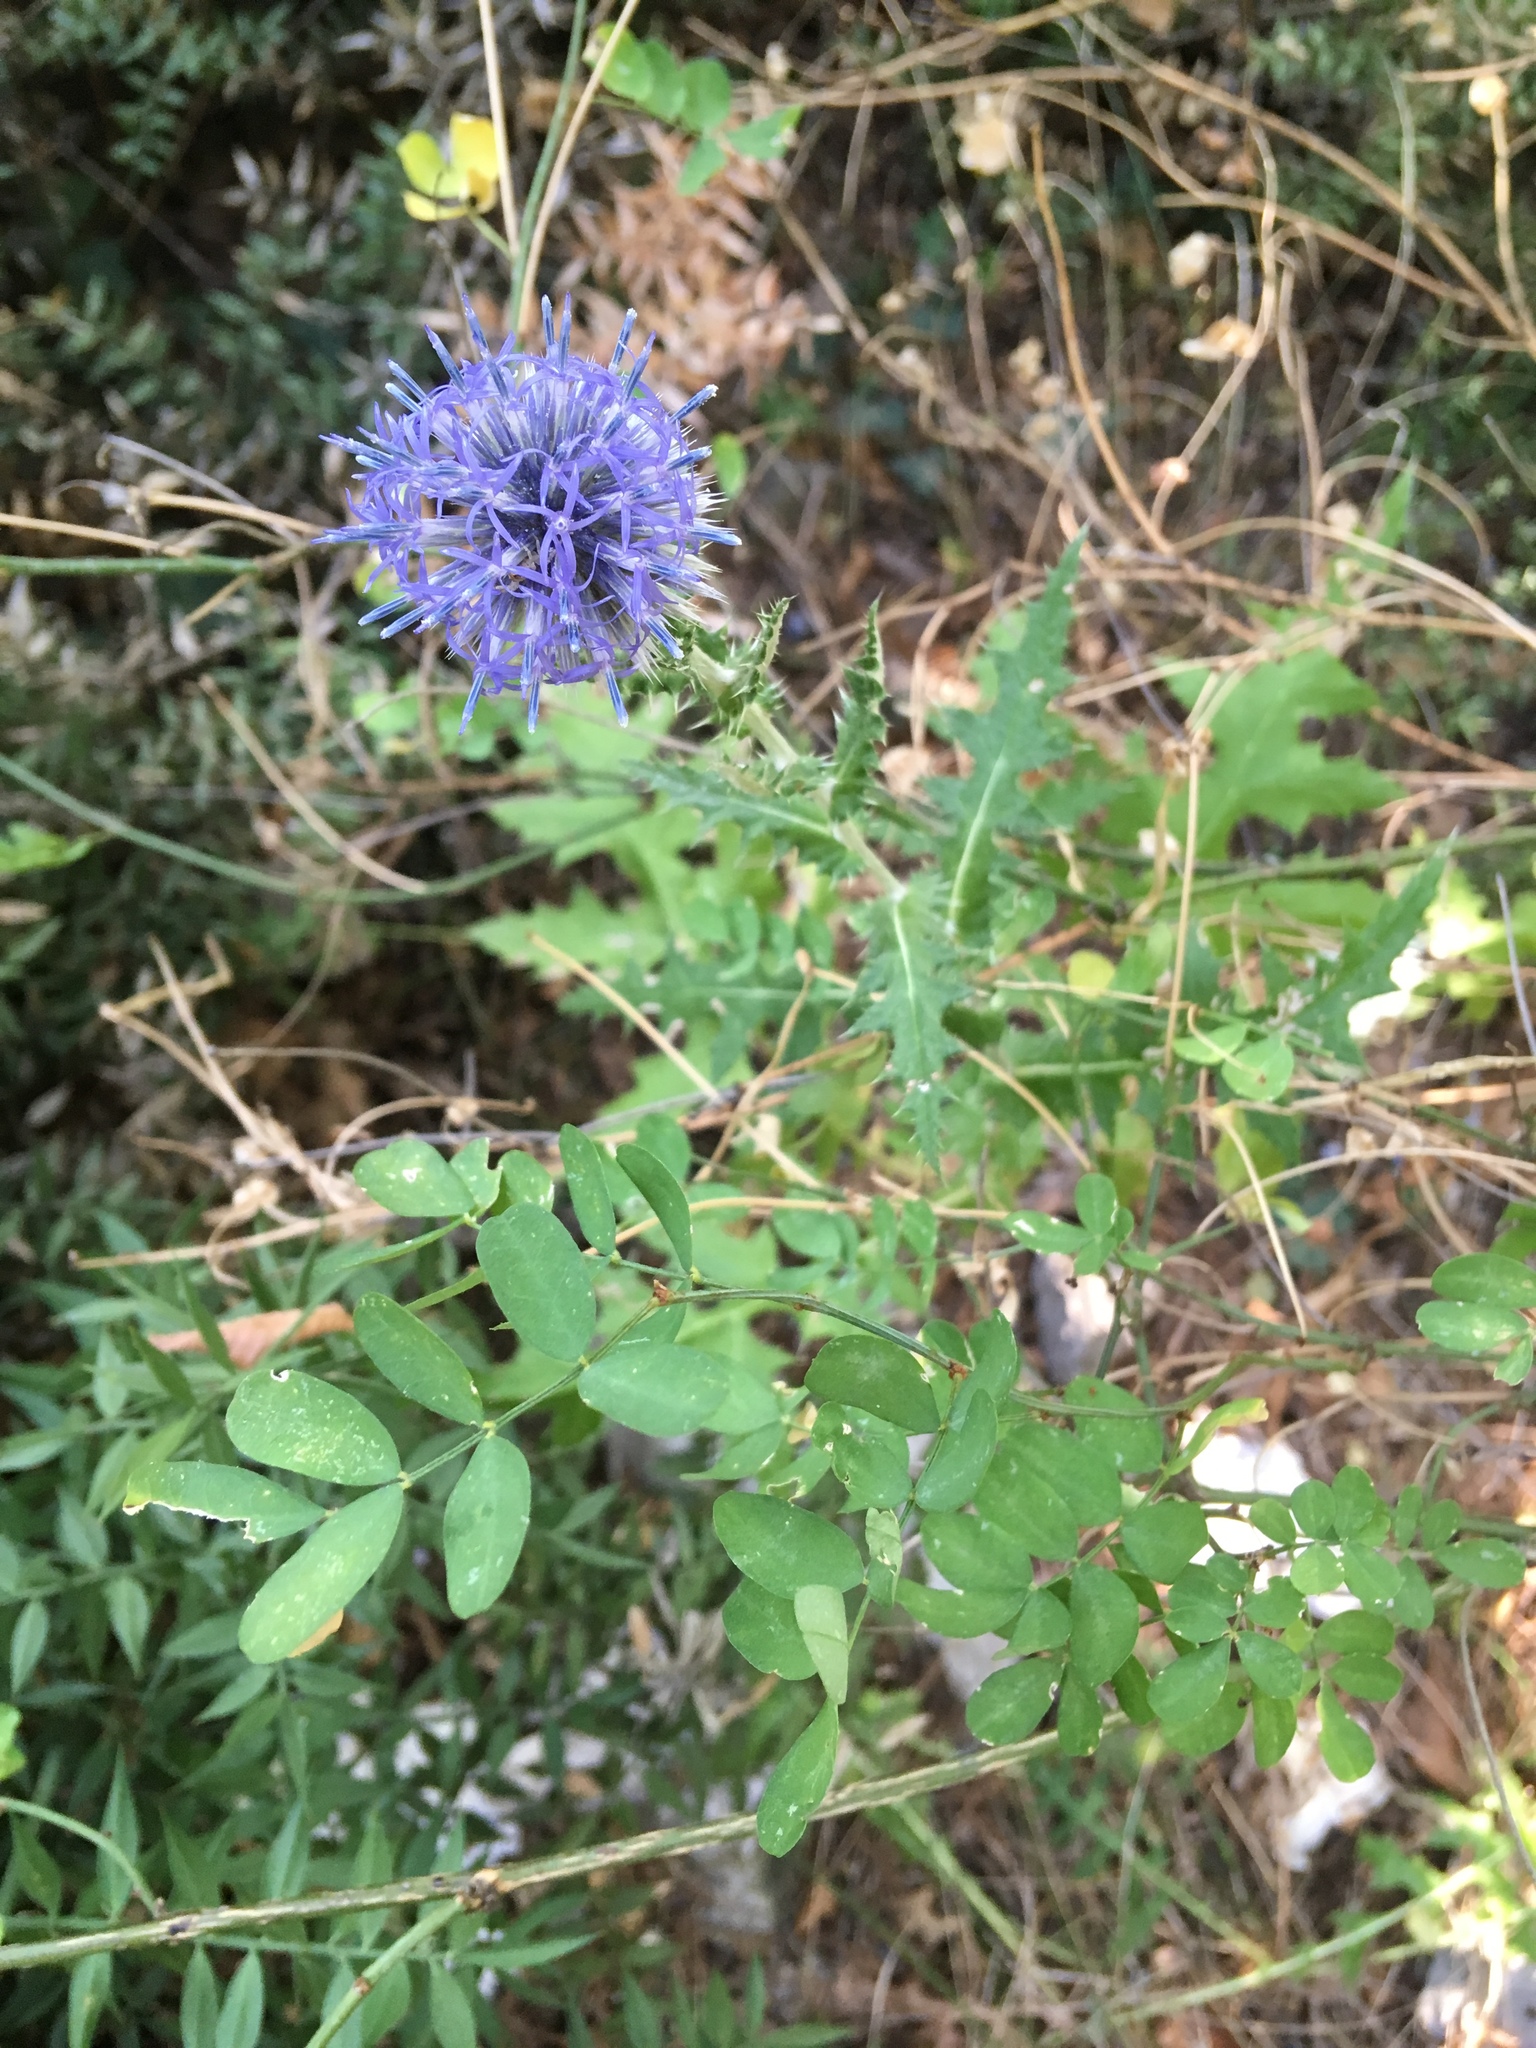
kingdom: Plantae
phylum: Tracheophyta
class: Magnoliopsida
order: Asterales
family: Asteraceae
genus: Echinops
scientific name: Echinops ritro
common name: Globe thistle
